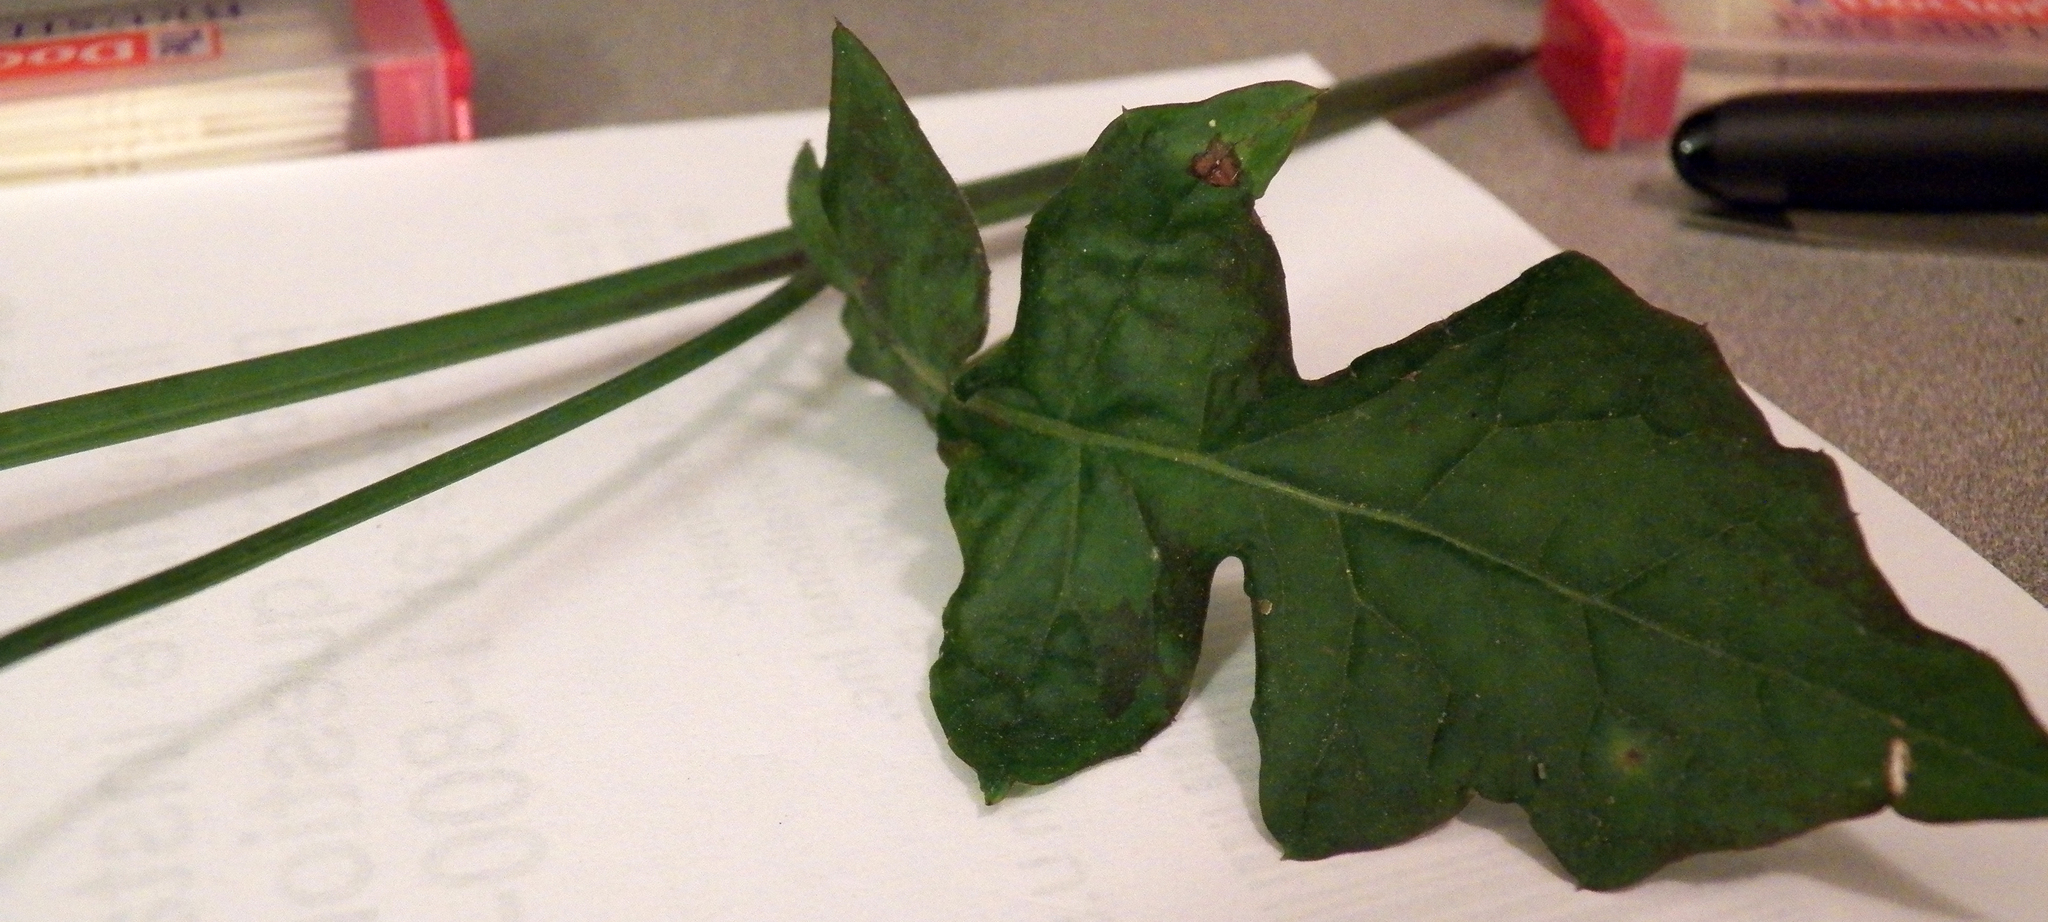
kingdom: Plantae
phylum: Tracheophyta
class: Magnoliopsida
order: Asterales
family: Asteraceae
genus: Youngia
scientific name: Youngia japonica
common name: Oriental false hawksbeard
